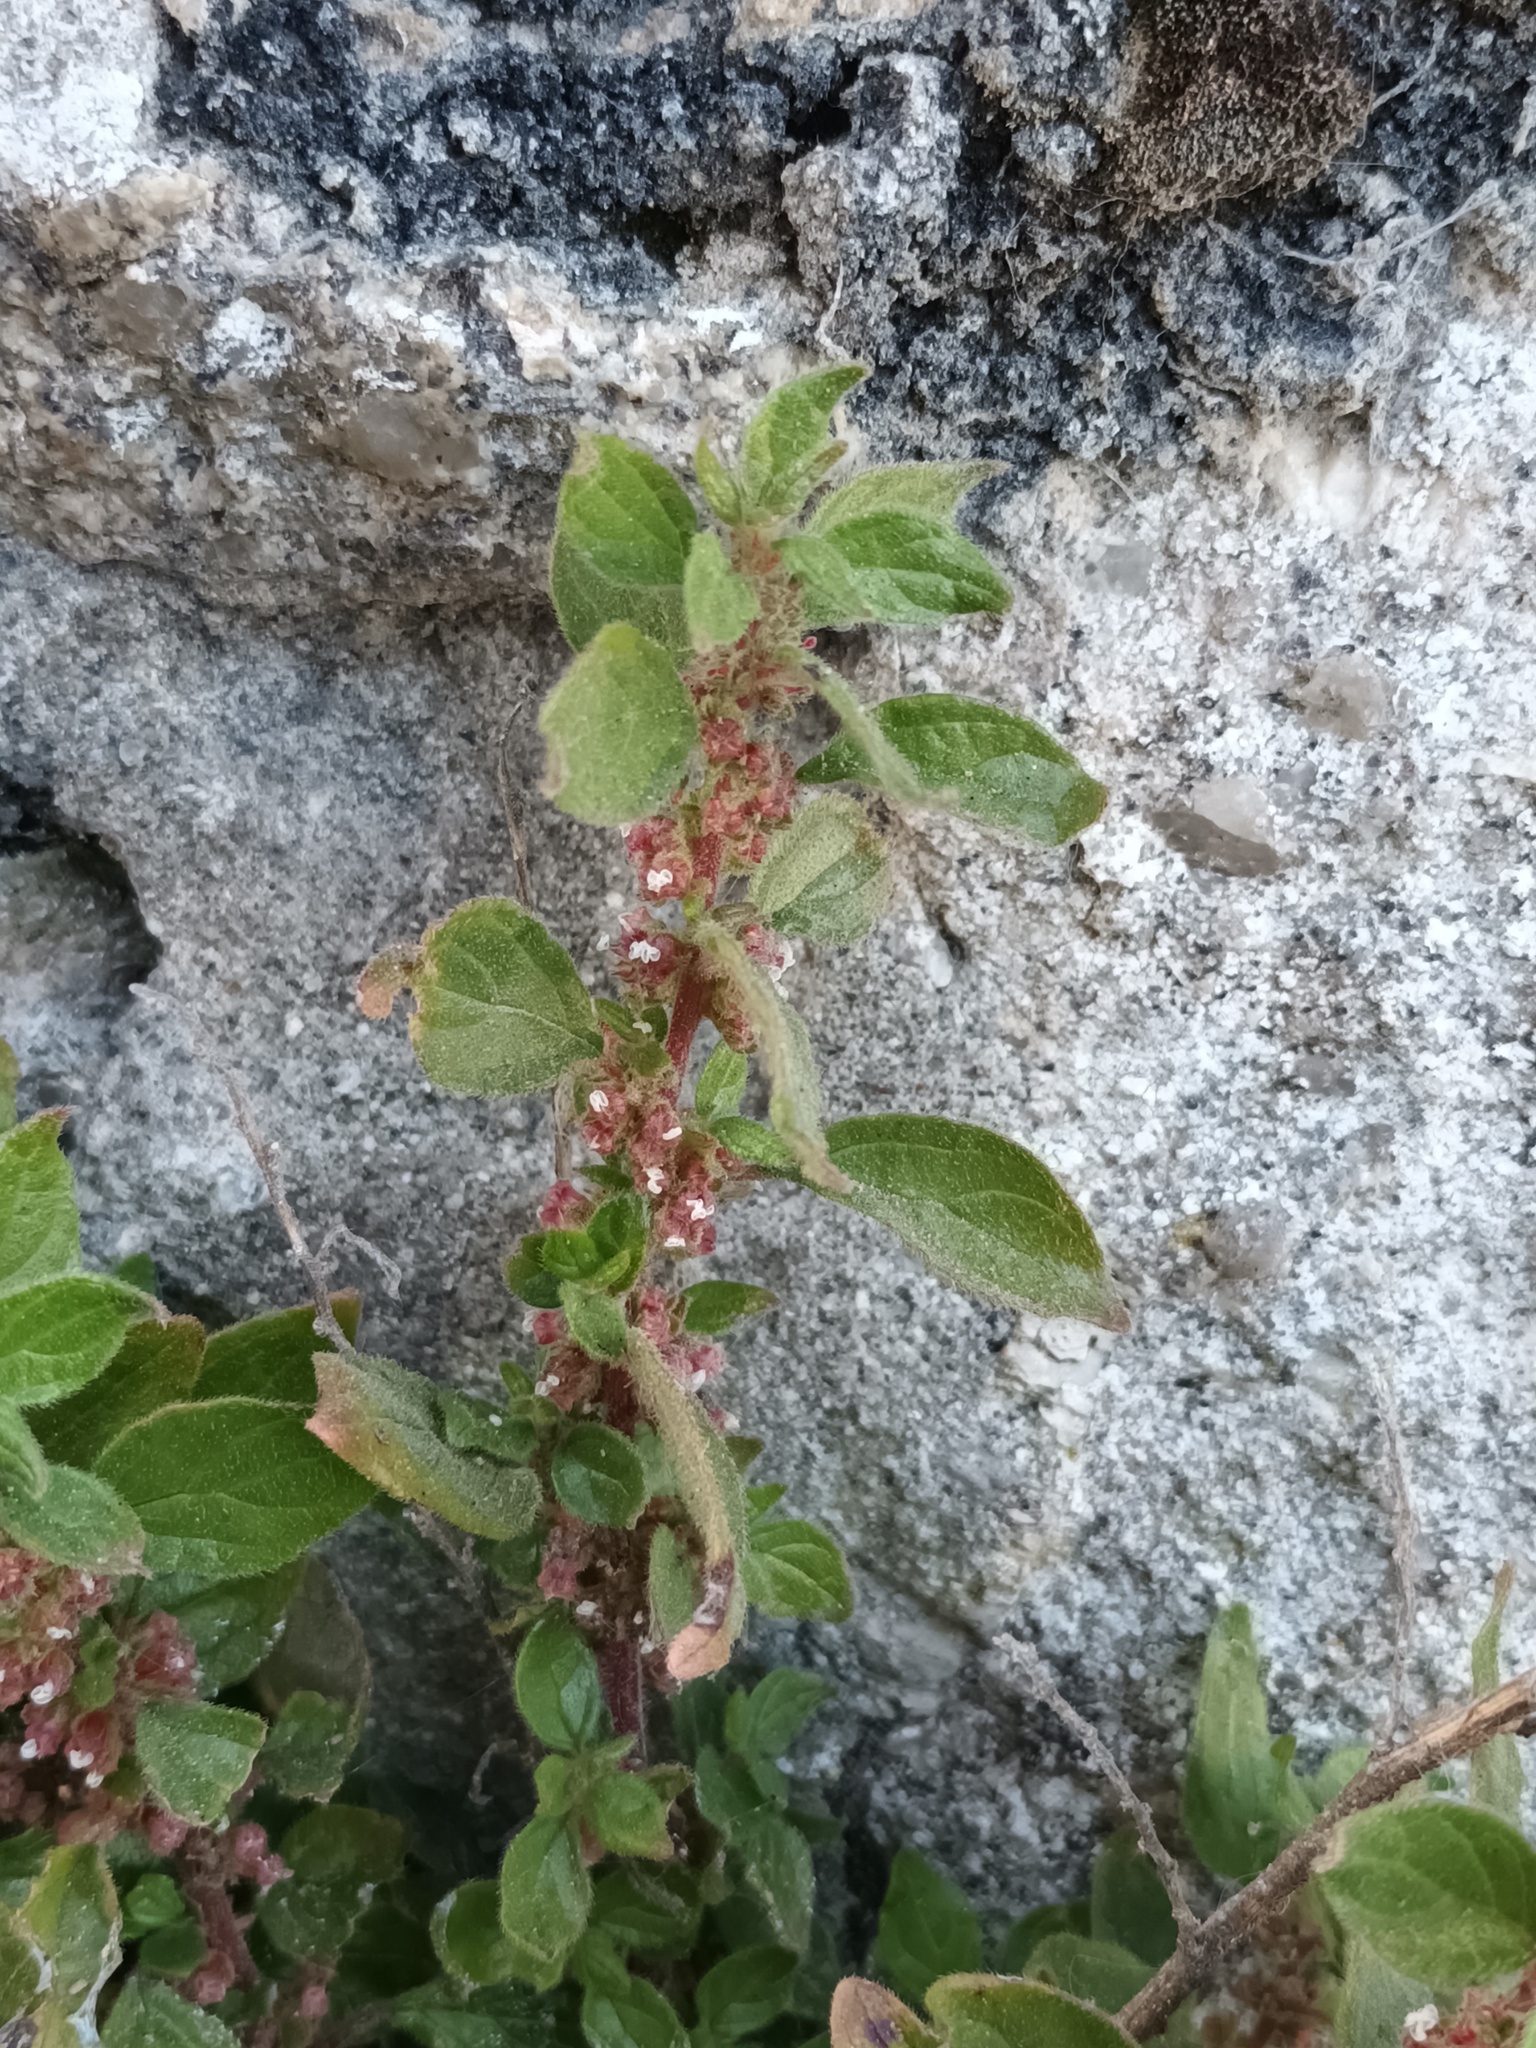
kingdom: Plantae
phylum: Tracheophyta
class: Magnoliopsida
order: Rosales
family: Urticaceae
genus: Parietaria
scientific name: Parietaria judaica
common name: Pellitory-of-the-wall
